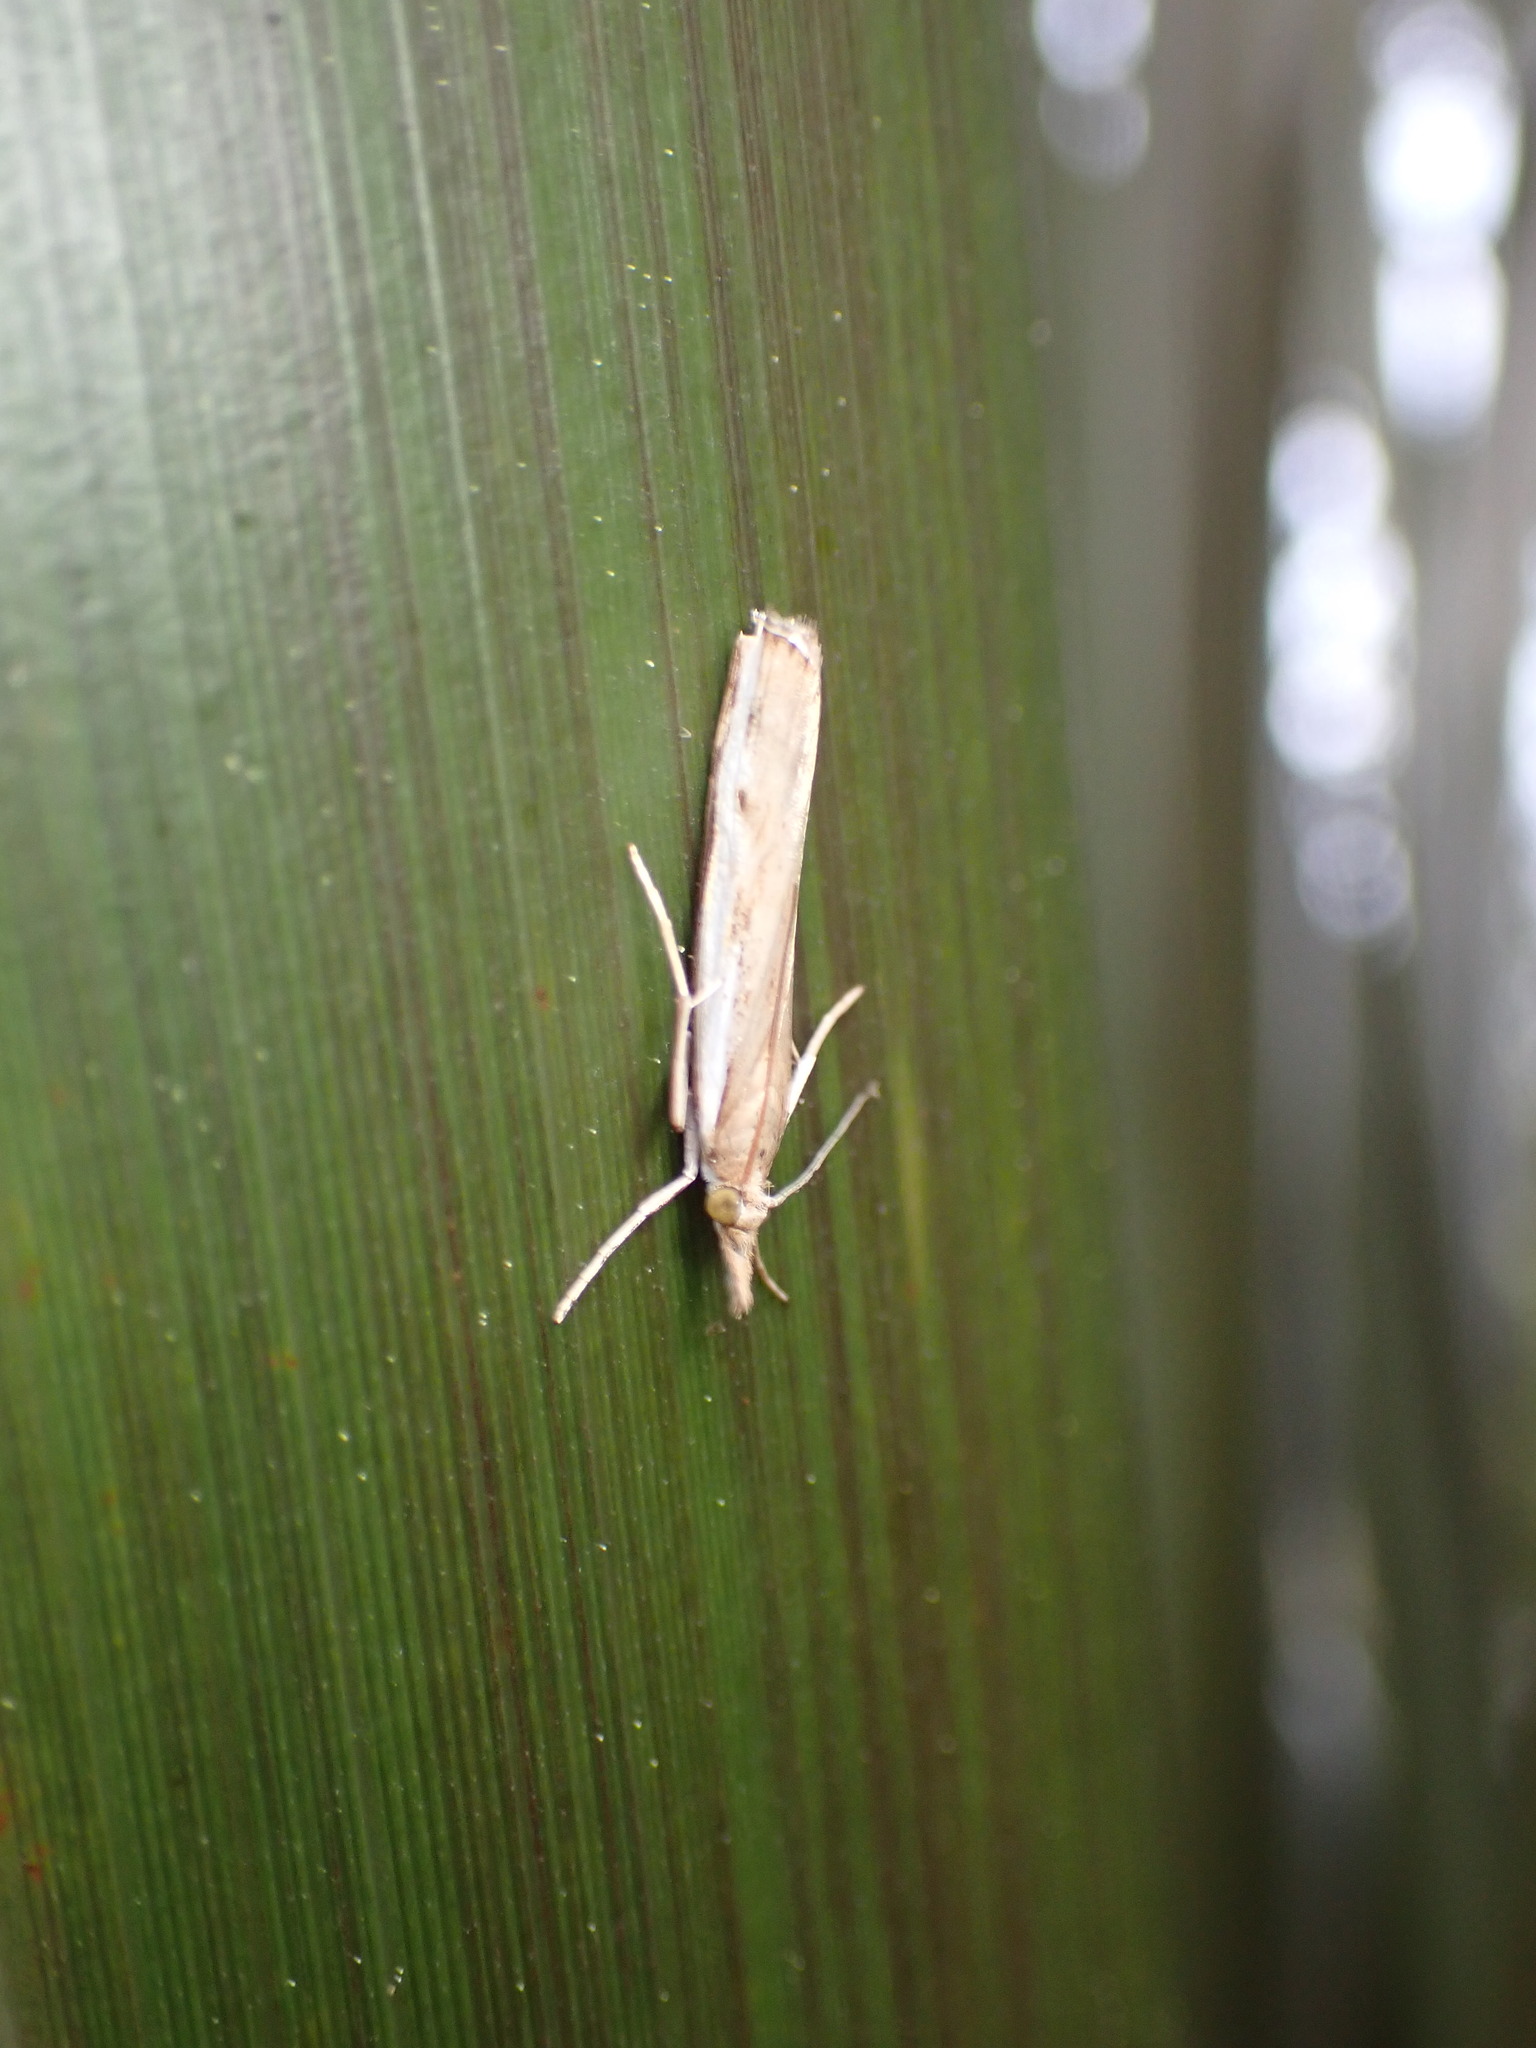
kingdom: Animalia
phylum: Arthropoda
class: Insecta
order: Lepidoptera
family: Crambidae
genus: Orocrambus
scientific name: Orocrambus flexuosellus
